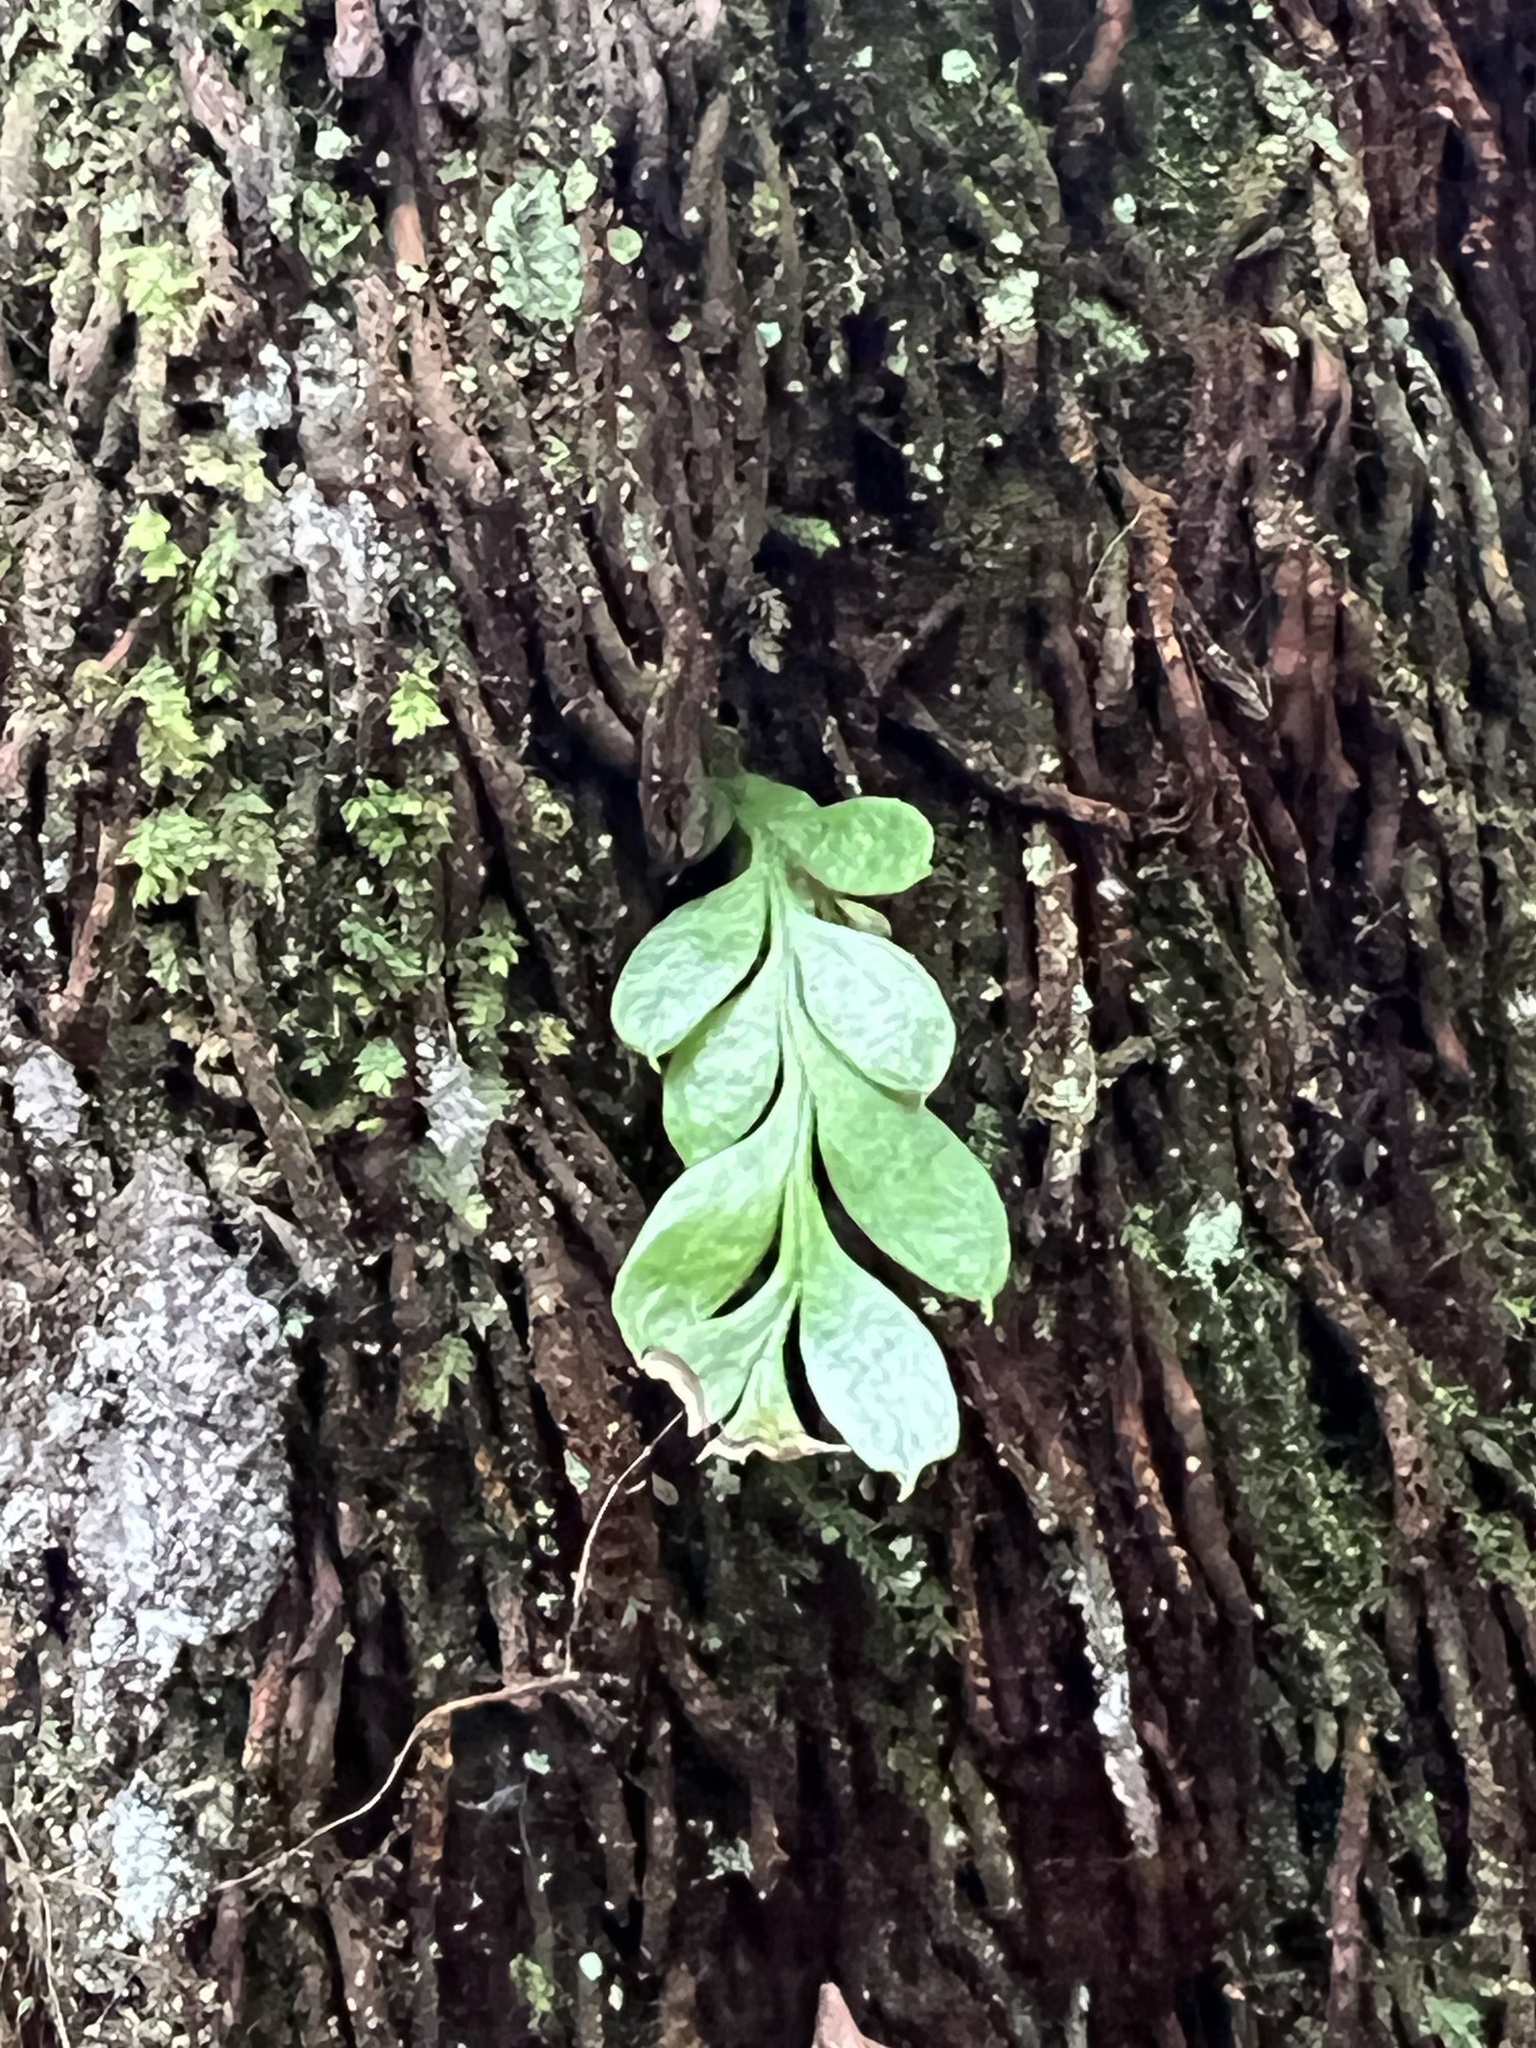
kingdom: Plantae
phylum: Tracheophyta
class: Polypodiopsida
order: Psilotales
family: Psilotaceae
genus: Tmesipteris
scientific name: Tmesipteris lanceolata
